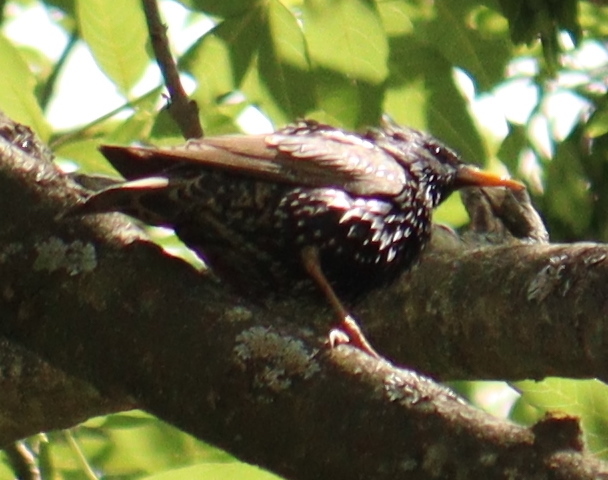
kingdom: Animalia
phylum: Chordata
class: Aves
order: Passeriformes
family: Sturnidae
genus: Sturnus
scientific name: Sturnus vulgaris
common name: Common starling
